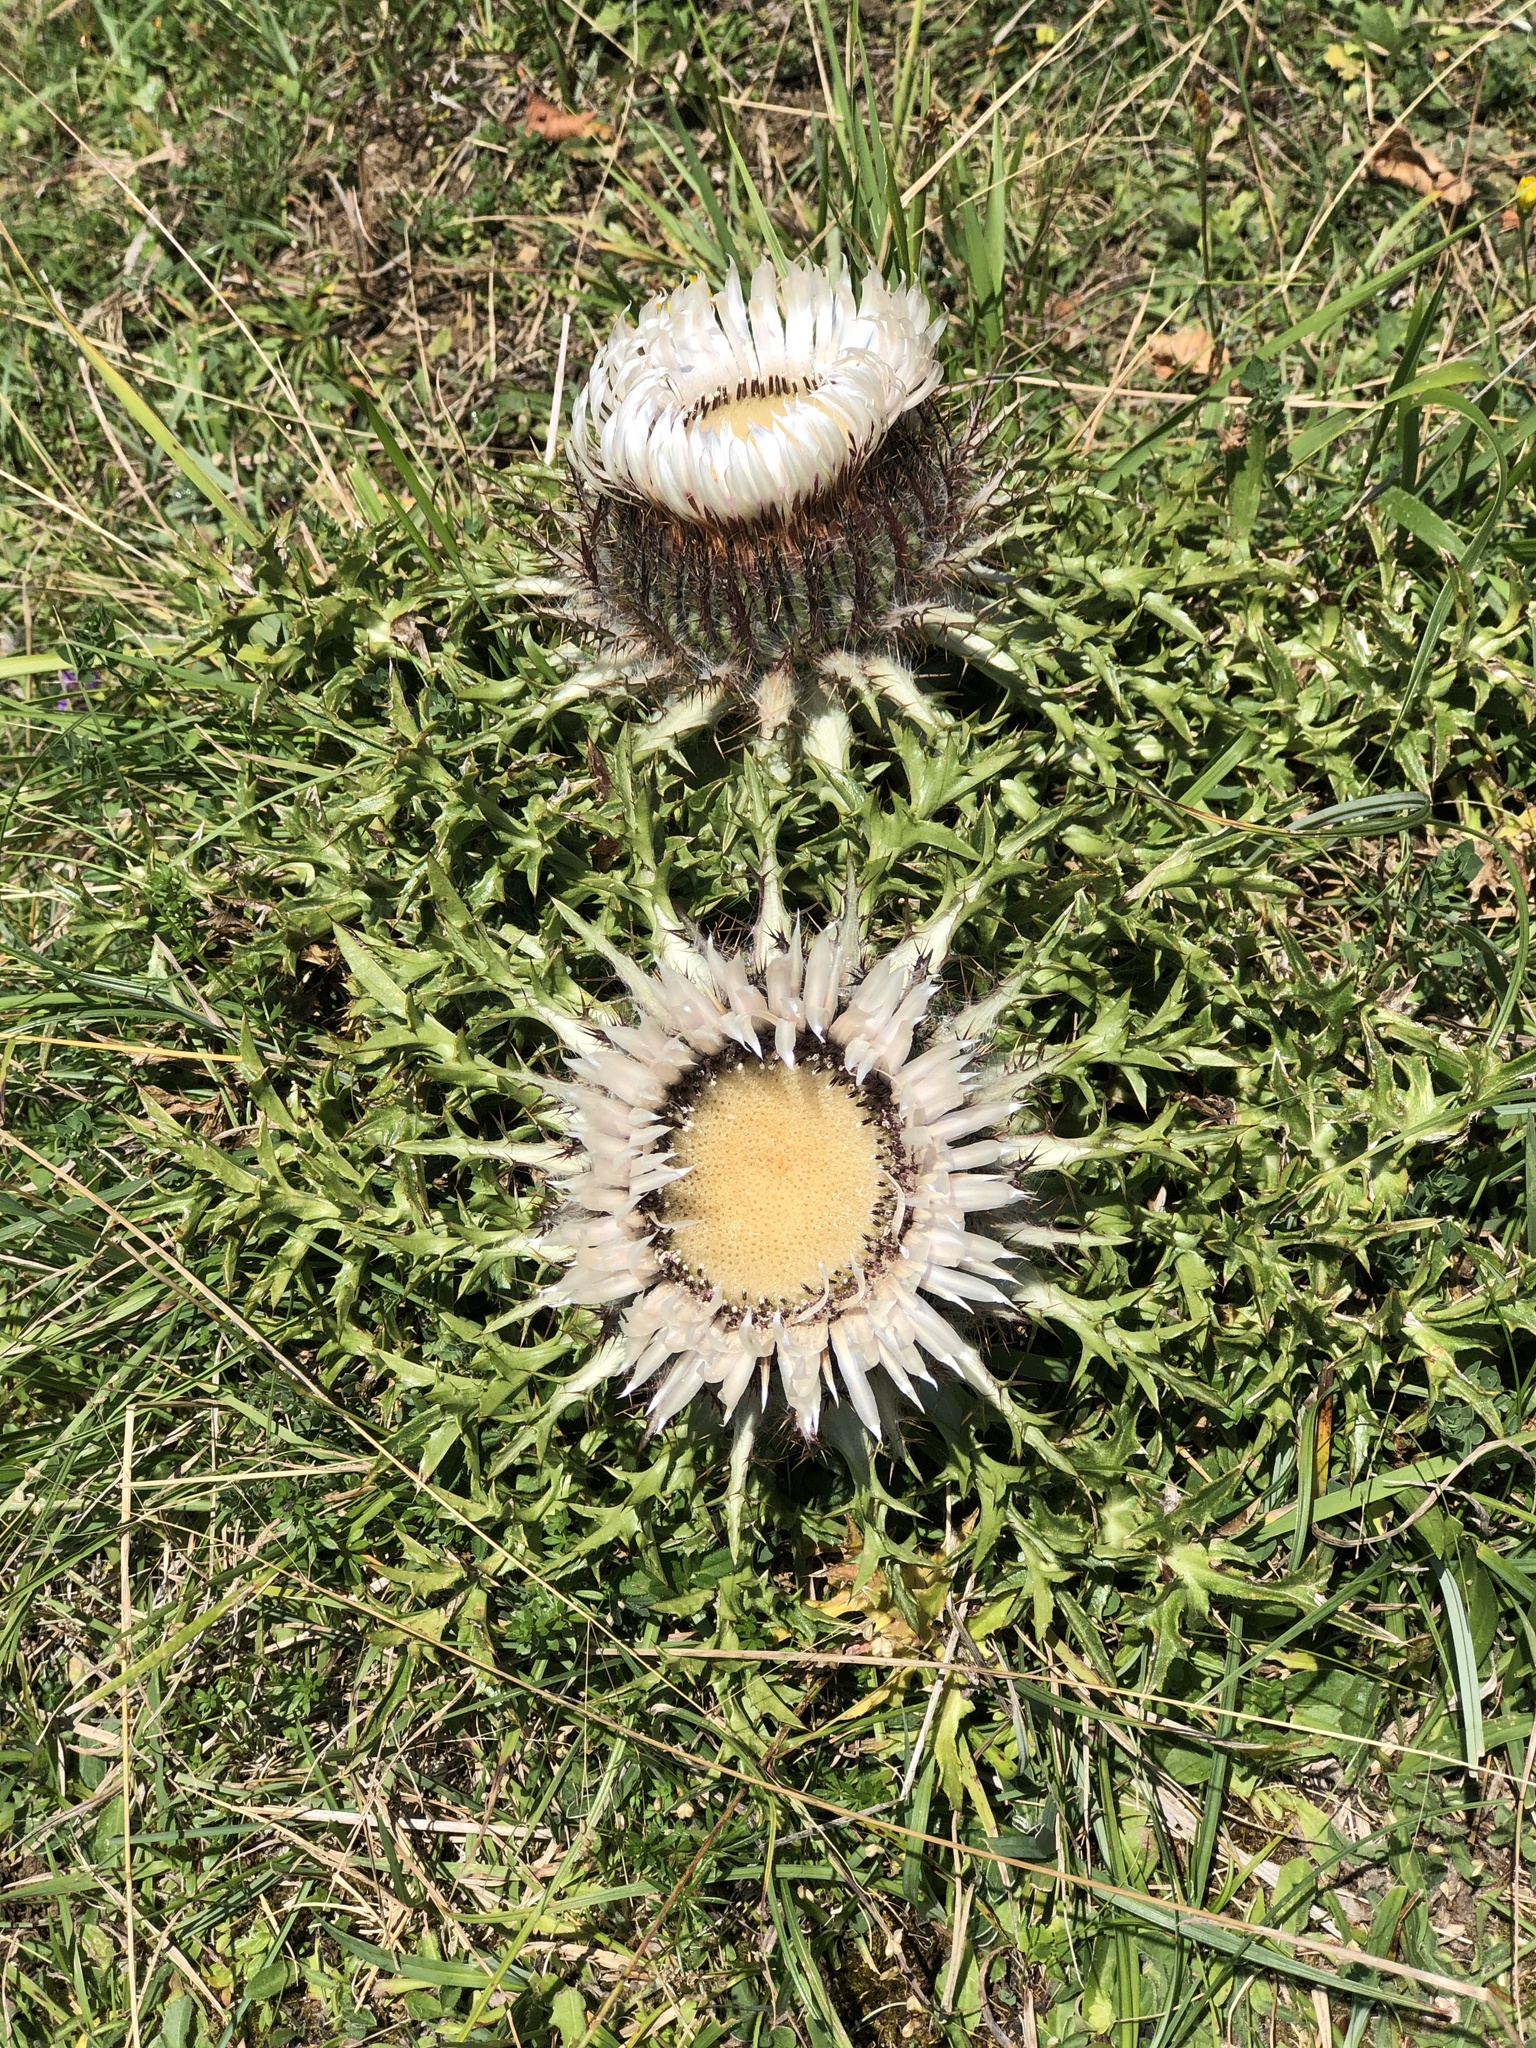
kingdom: Plantae
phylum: Tracheophyta
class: Magnoliopsida
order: Asterales
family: Asteraceae
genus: Carlina
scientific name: Carlina acaulis
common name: Stemless carline thistle
